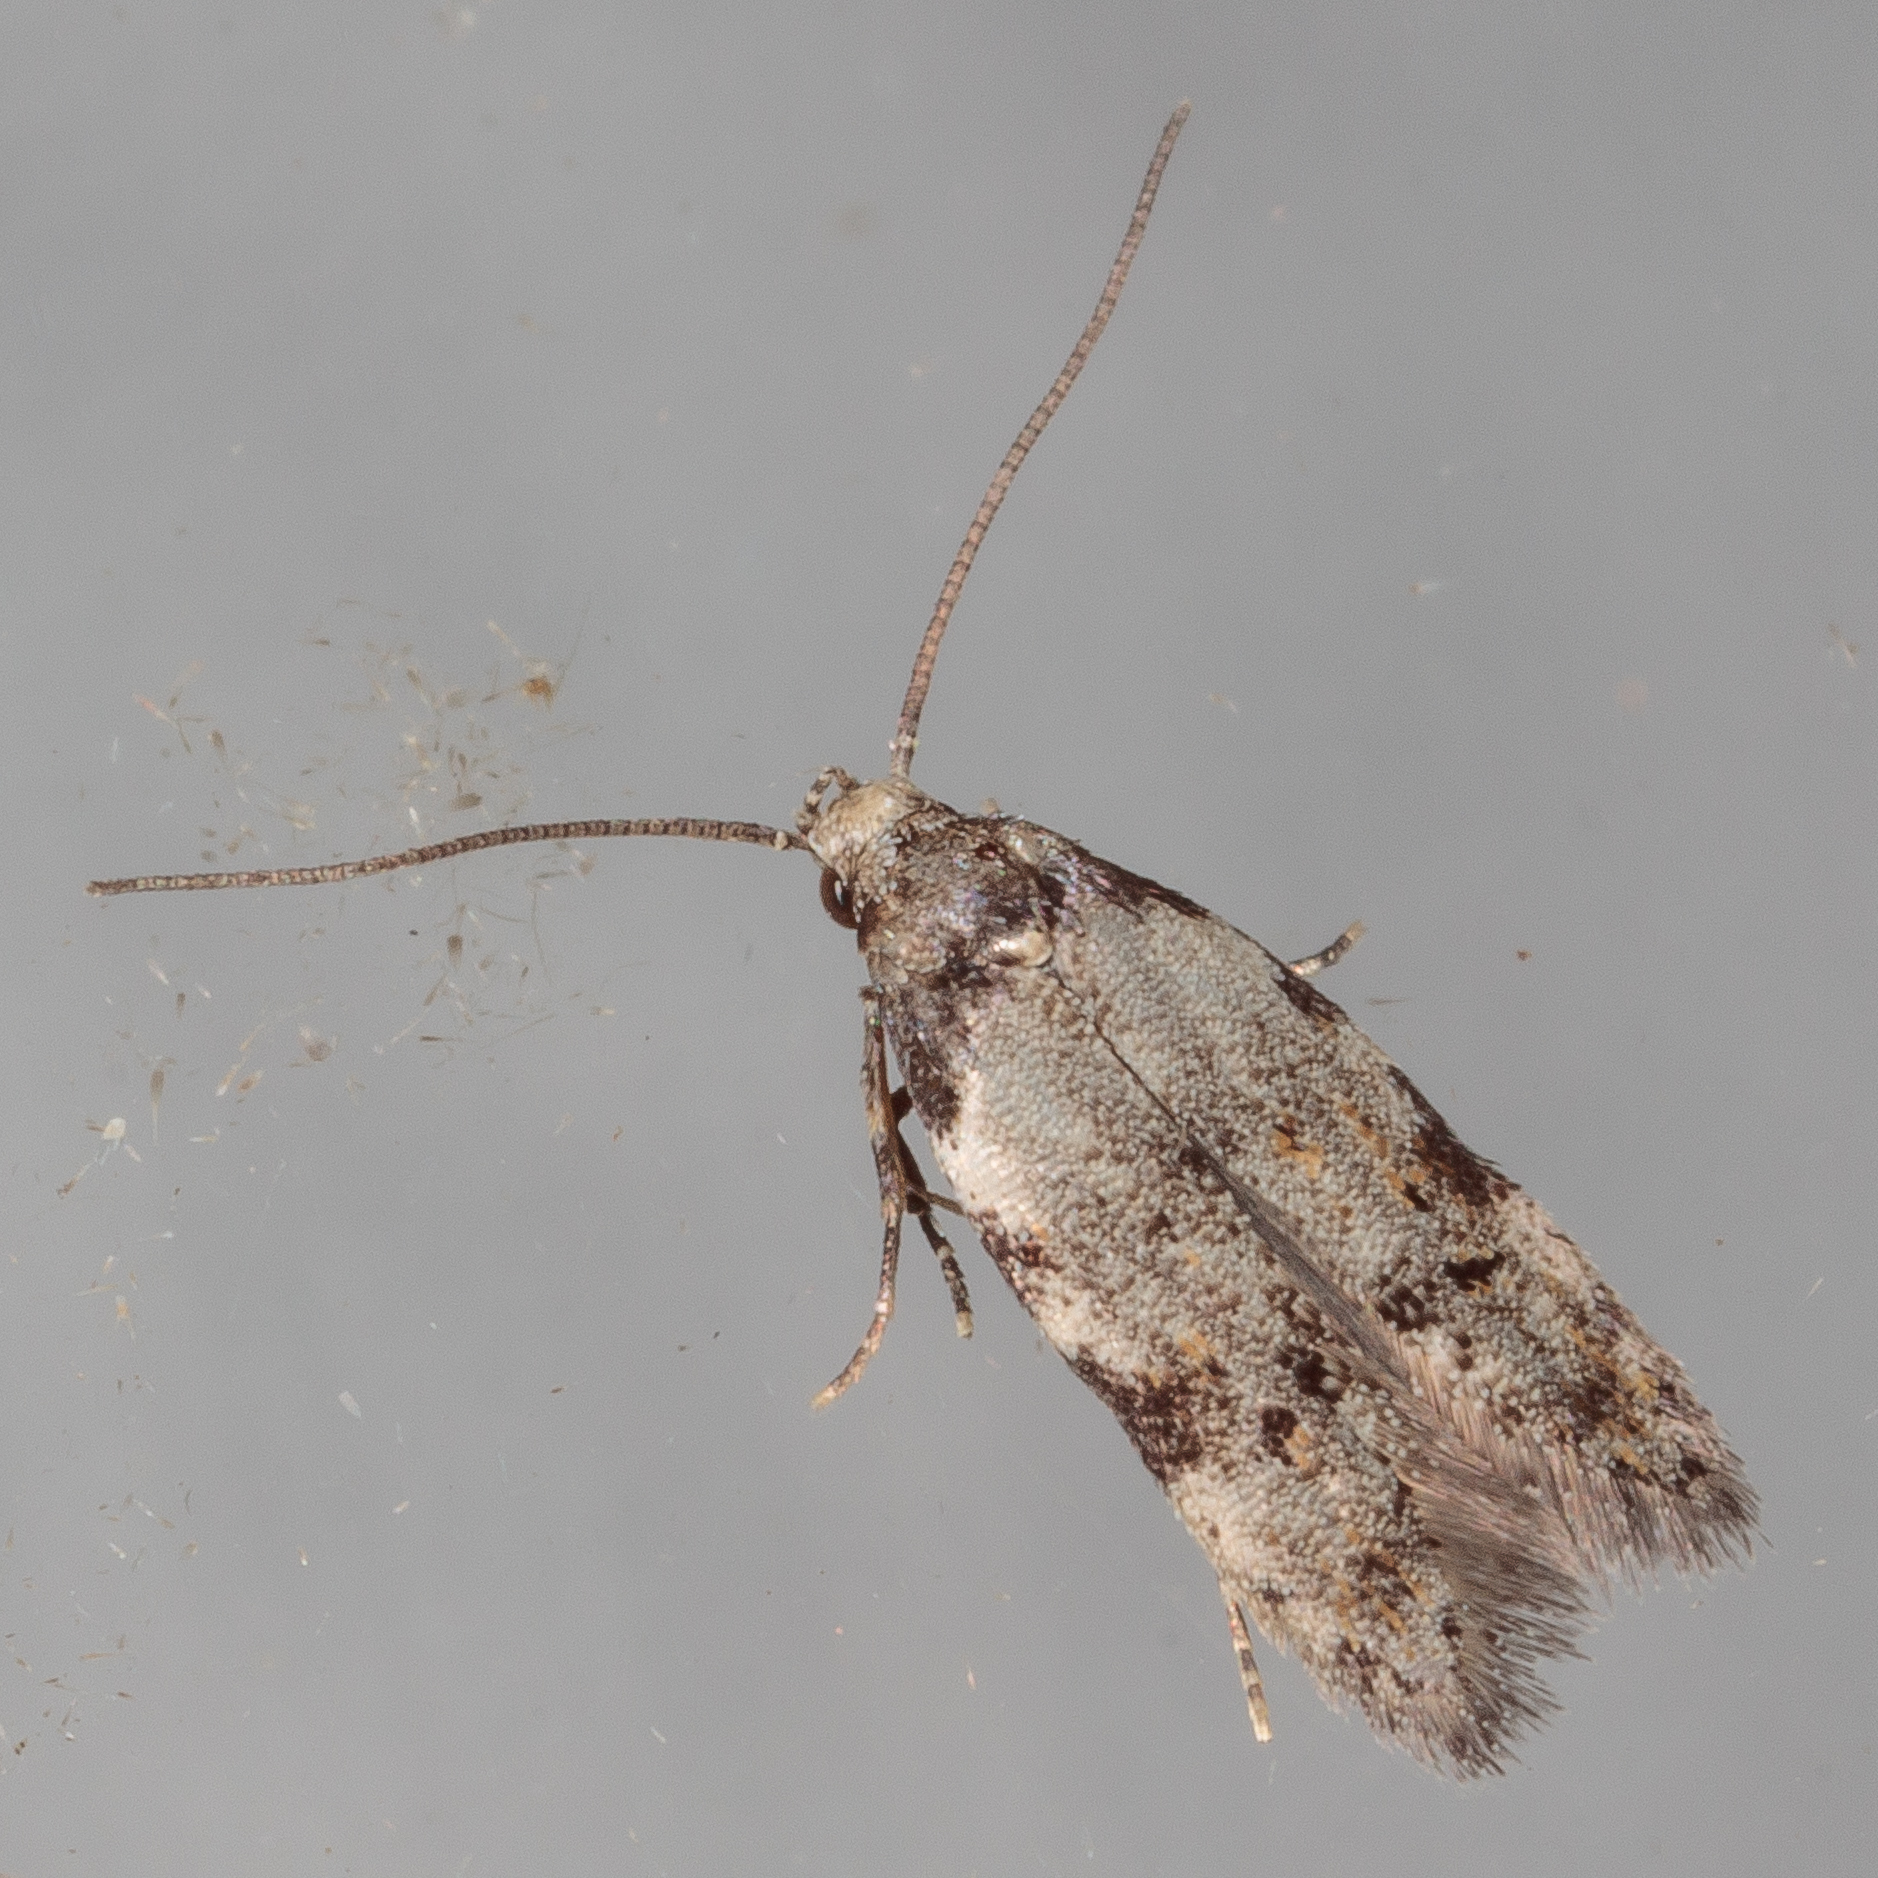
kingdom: Animalia
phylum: Arthropoda
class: Insecta
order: Lepidoptera
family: Autostichidae
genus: Taygete
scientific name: Taygete attributella
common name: Triangle-marked twirler moth
